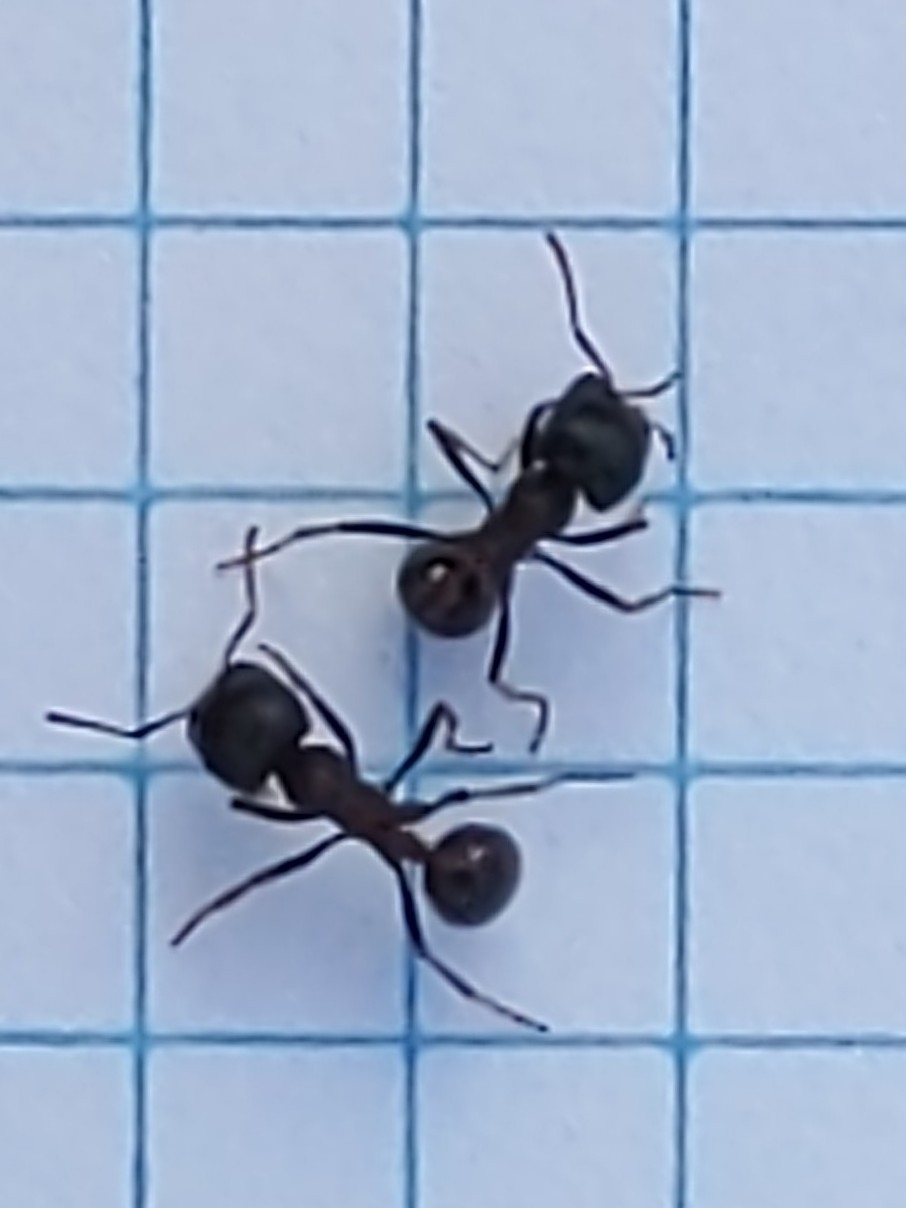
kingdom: Animalia
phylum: Arthropoda
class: Insecta
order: Hymenoptera
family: Formicidae
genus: Pogonomyrmex
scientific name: Pogonomyrmex rugosus
